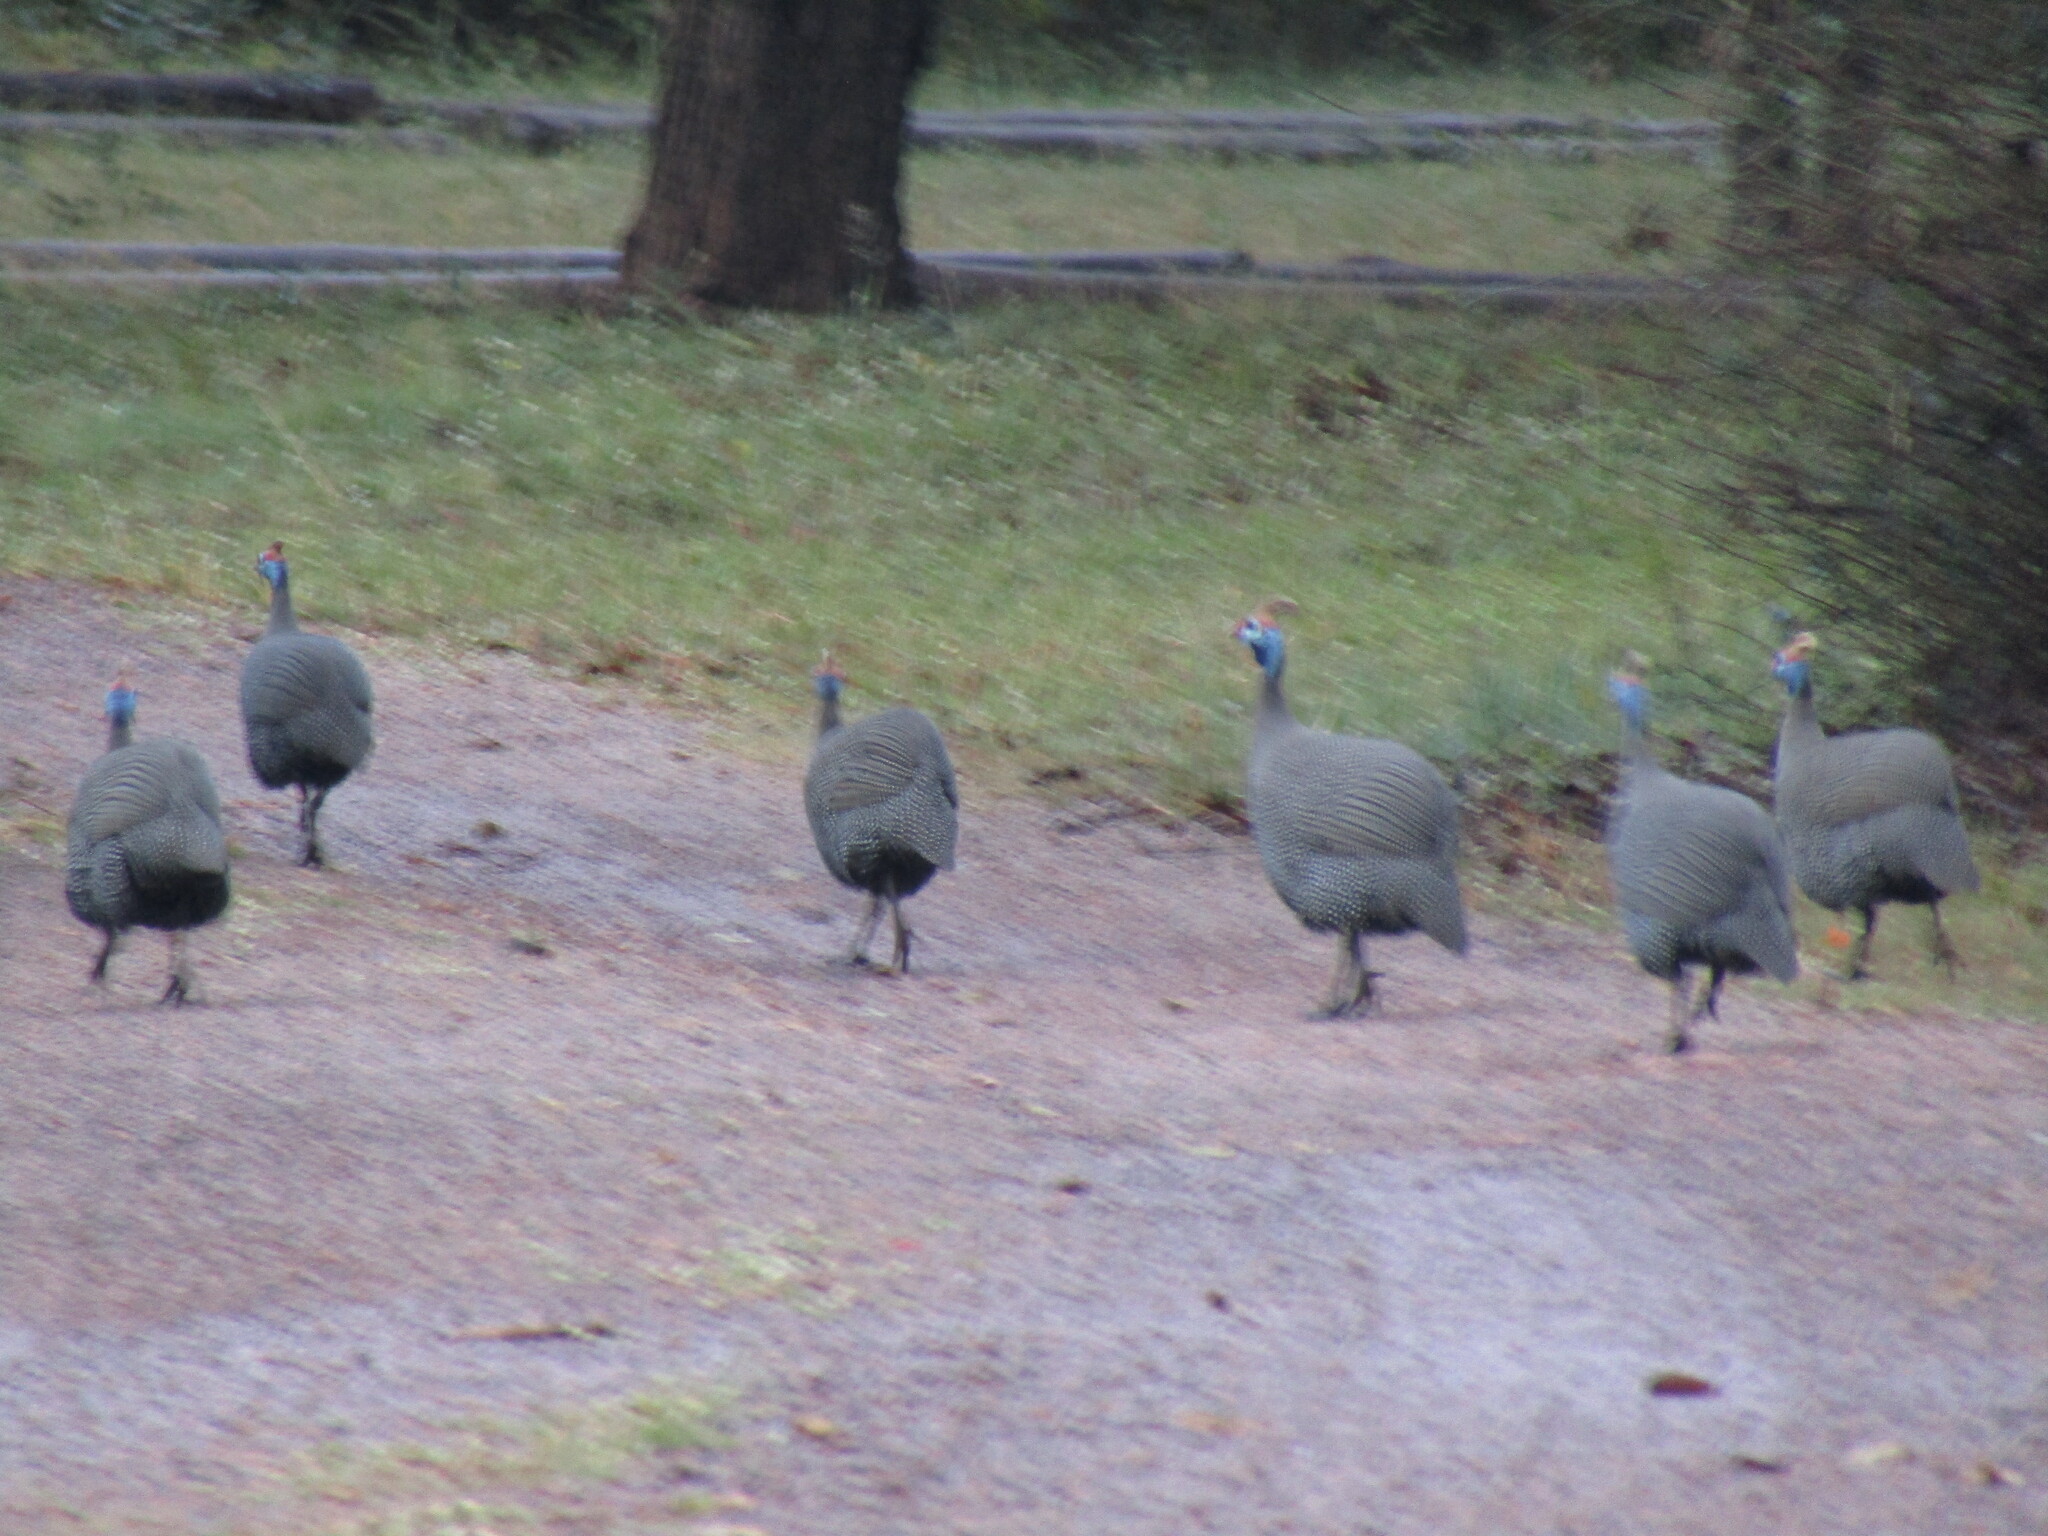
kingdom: Animalia
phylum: Chordata
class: Aves
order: Galliformes
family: Numididae
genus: Numida
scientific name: Numida meleagris
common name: Helmeted guineafowl
